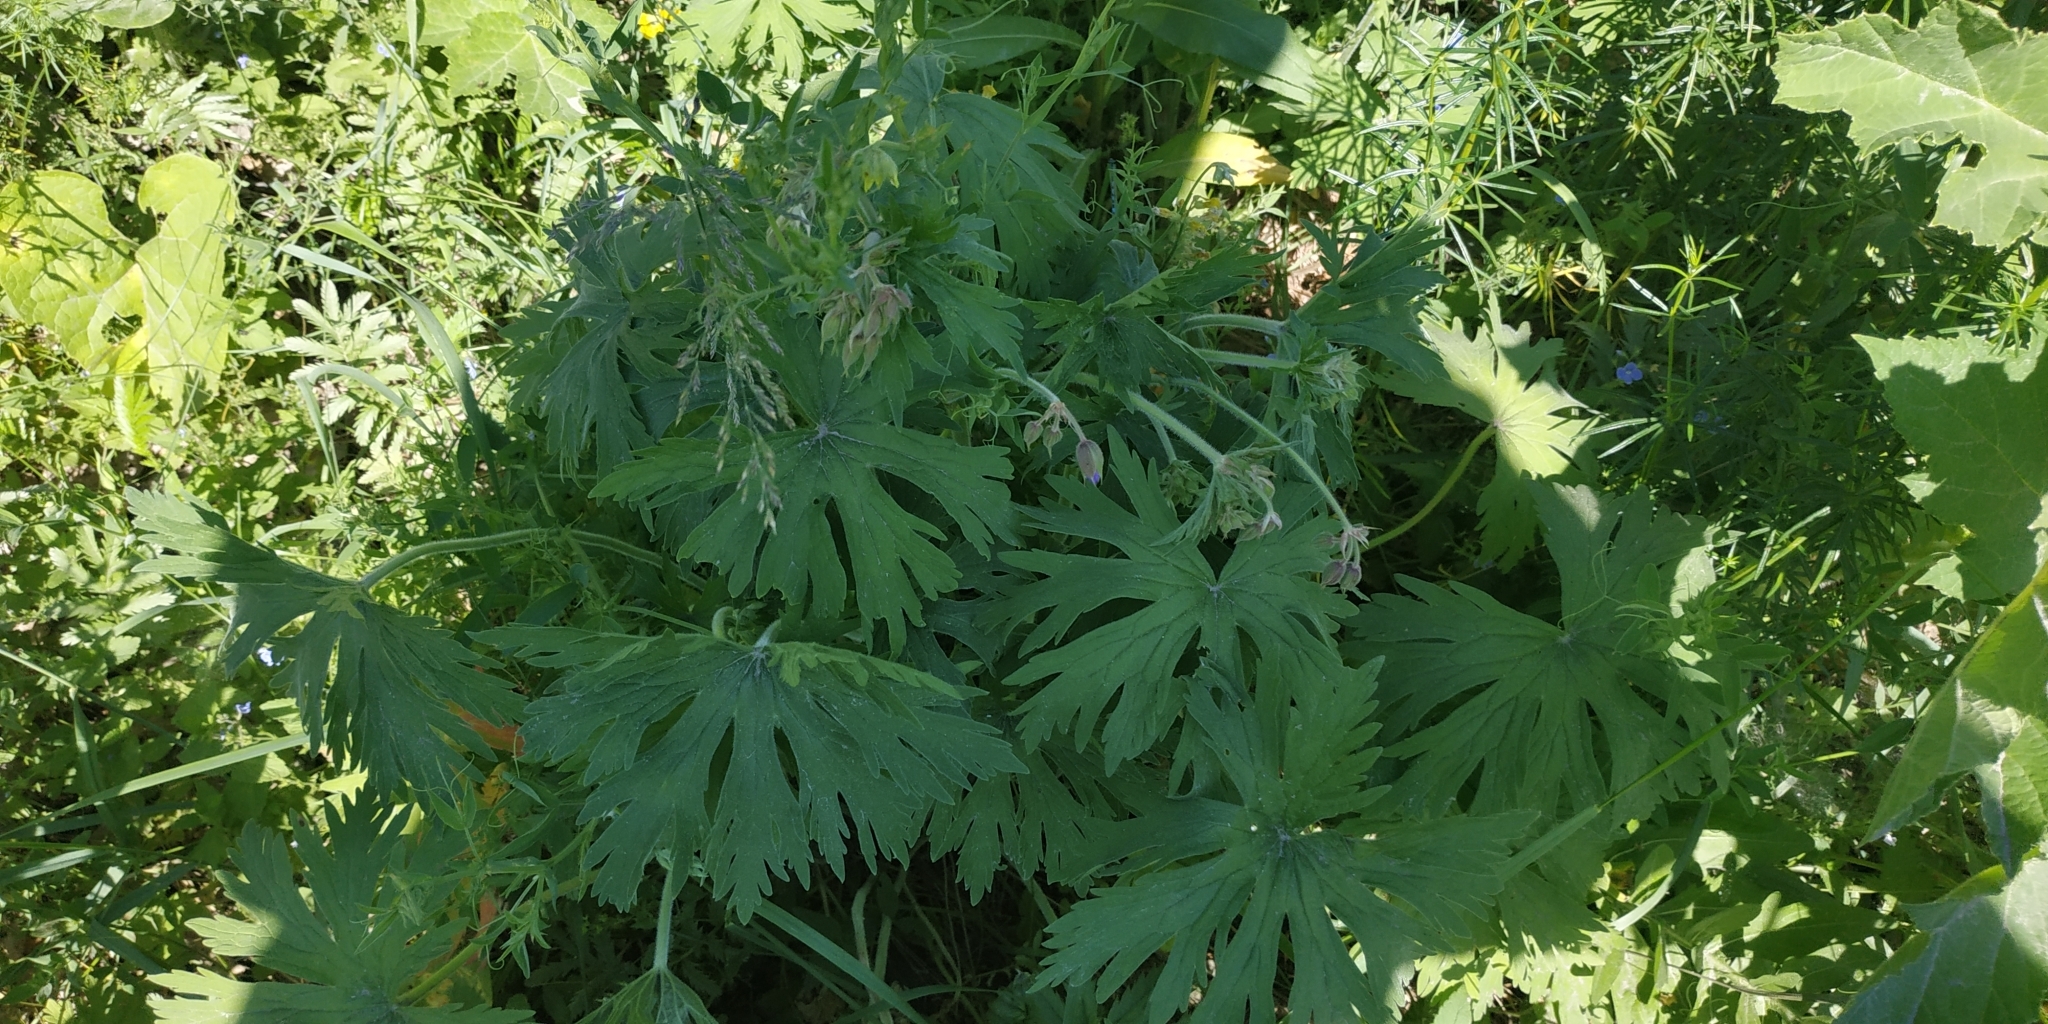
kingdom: Plantae
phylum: Tracheophyta
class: Magnoliopsida
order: Geraniales
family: Geraniaceae
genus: Geranium
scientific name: Geranium pratense
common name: Meadow crane's-bill
